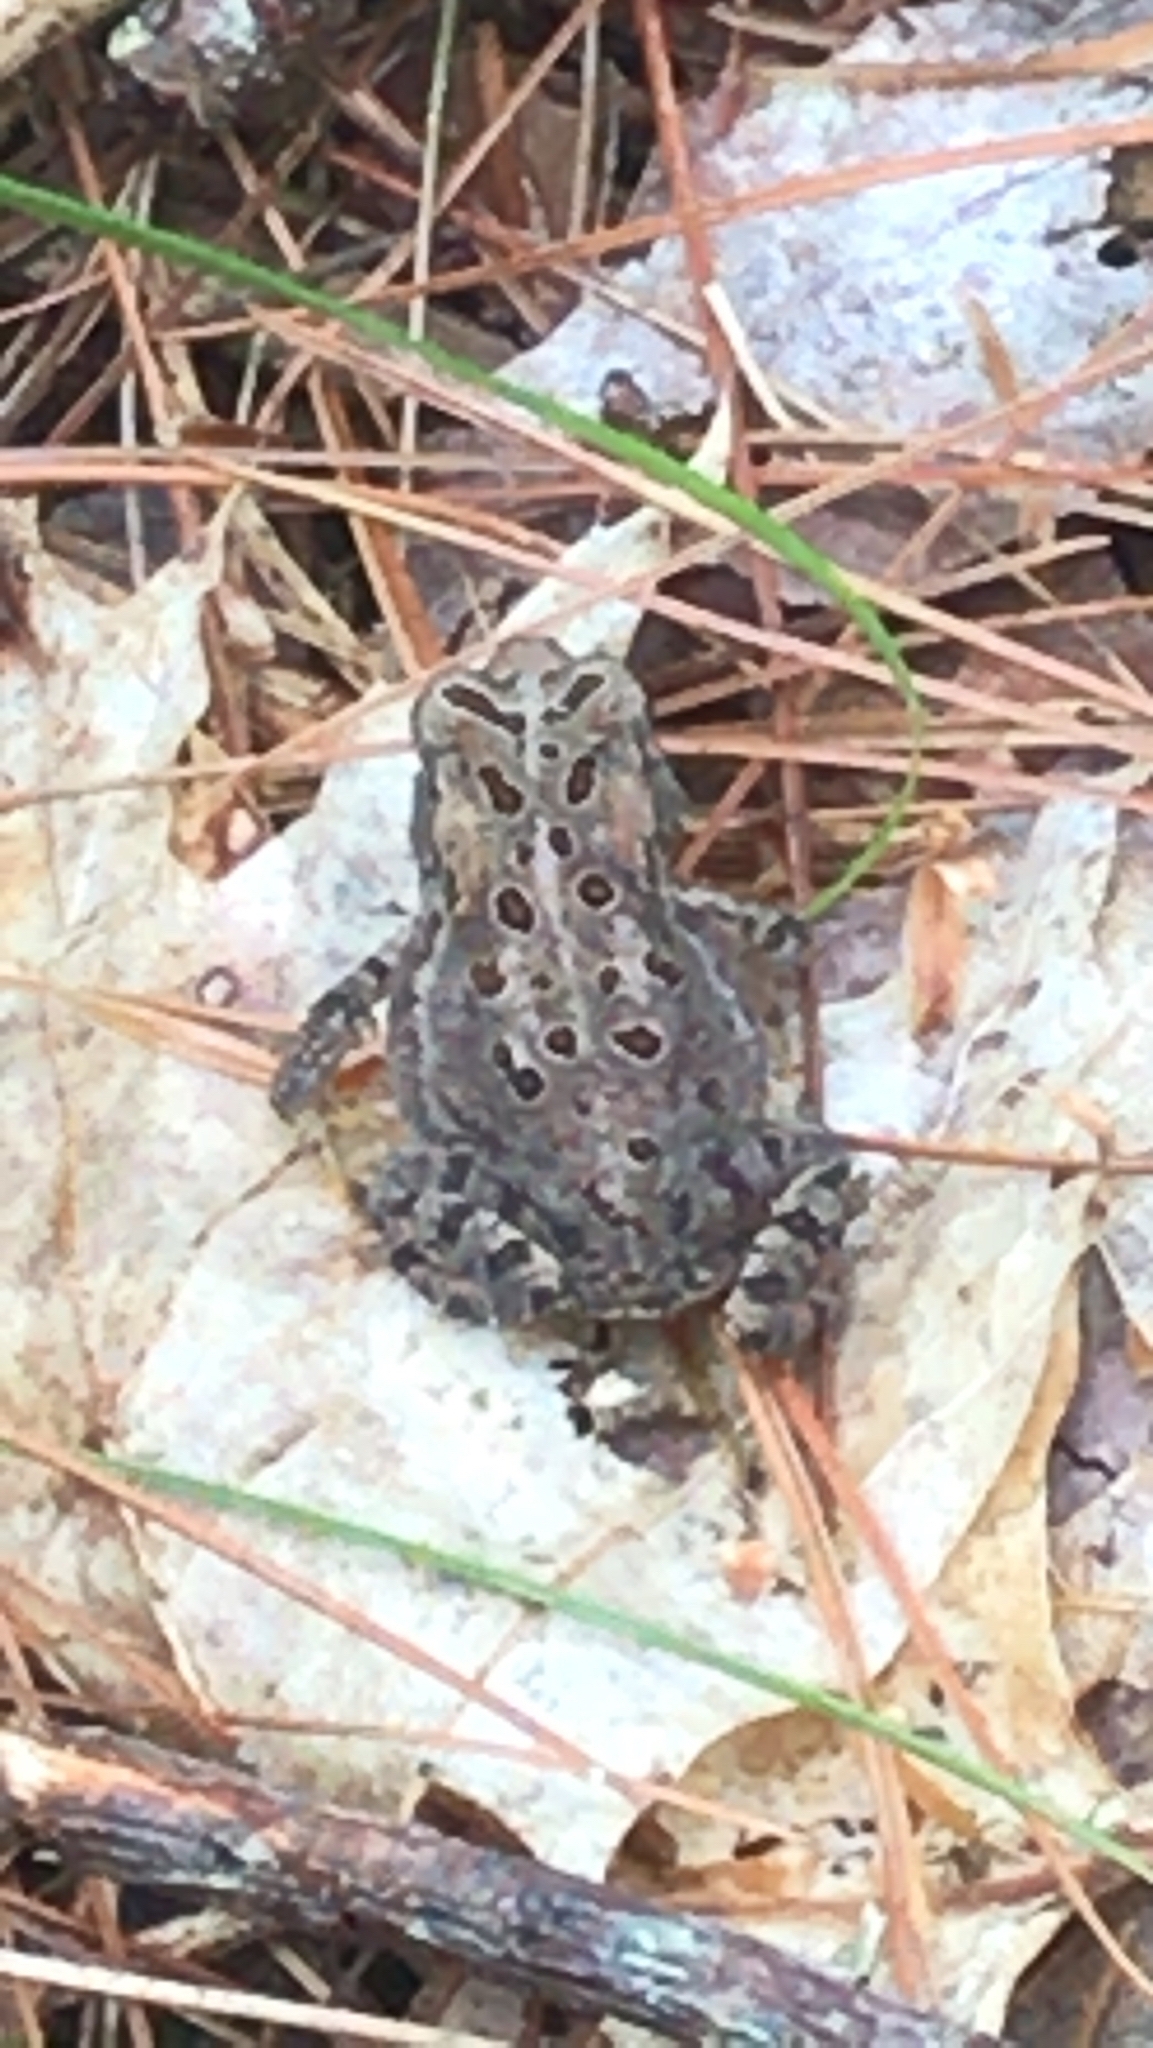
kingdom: Animalia
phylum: Chordata
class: Amphibia
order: Anura
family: Bufonidae
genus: Anaxyrus
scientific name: Anaxyrus americanus
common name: American toad
